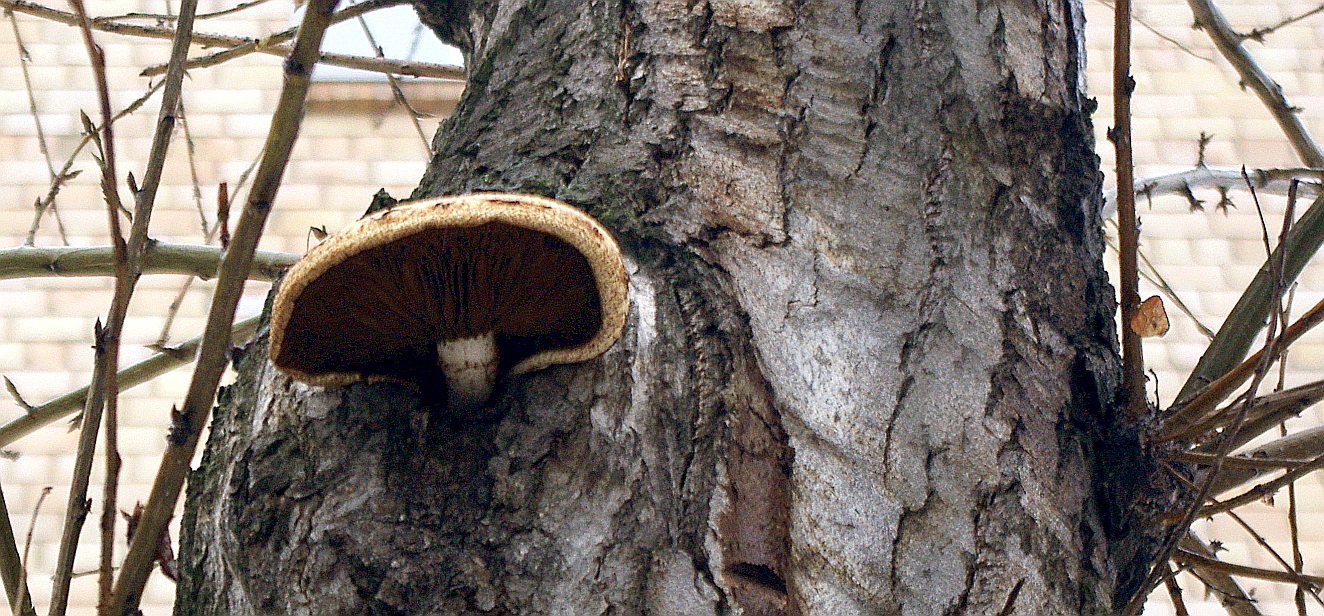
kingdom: Fungi
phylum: Basidiomycota
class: Agaricomycetes
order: Agaricales
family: Pluteaceae
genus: Volvariella
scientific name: Volvariella bombycina
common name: Silky rosegill
